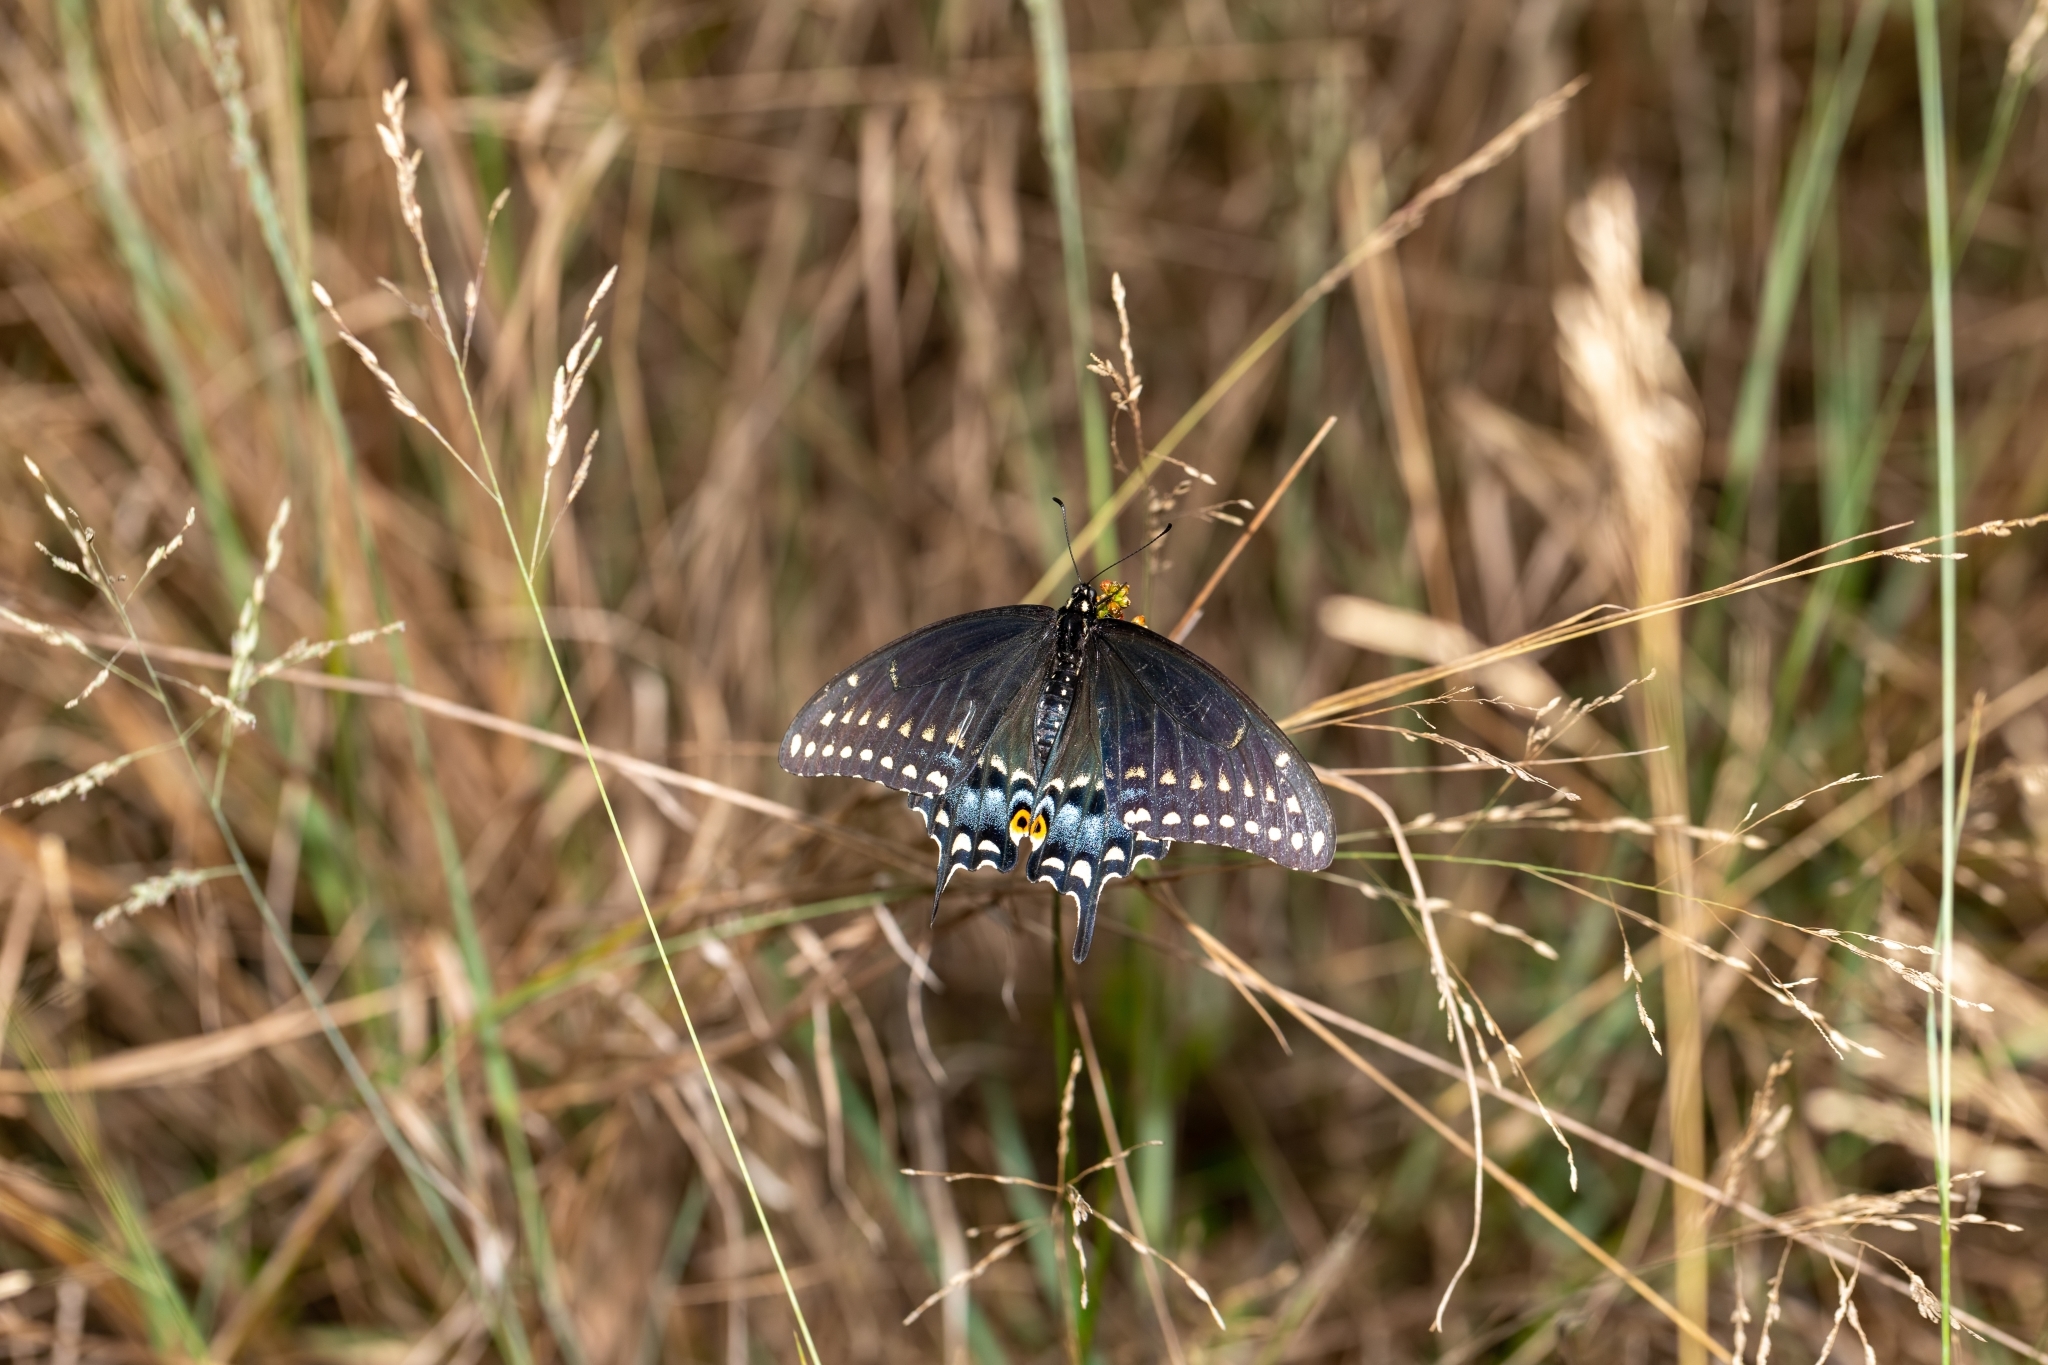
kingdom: Animalia
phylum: Arthropoda
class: Insecta
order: Lepidoptera
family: Papilionidae
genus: Papilio
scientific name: Papilio polyxenes
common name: Black swallowtail
